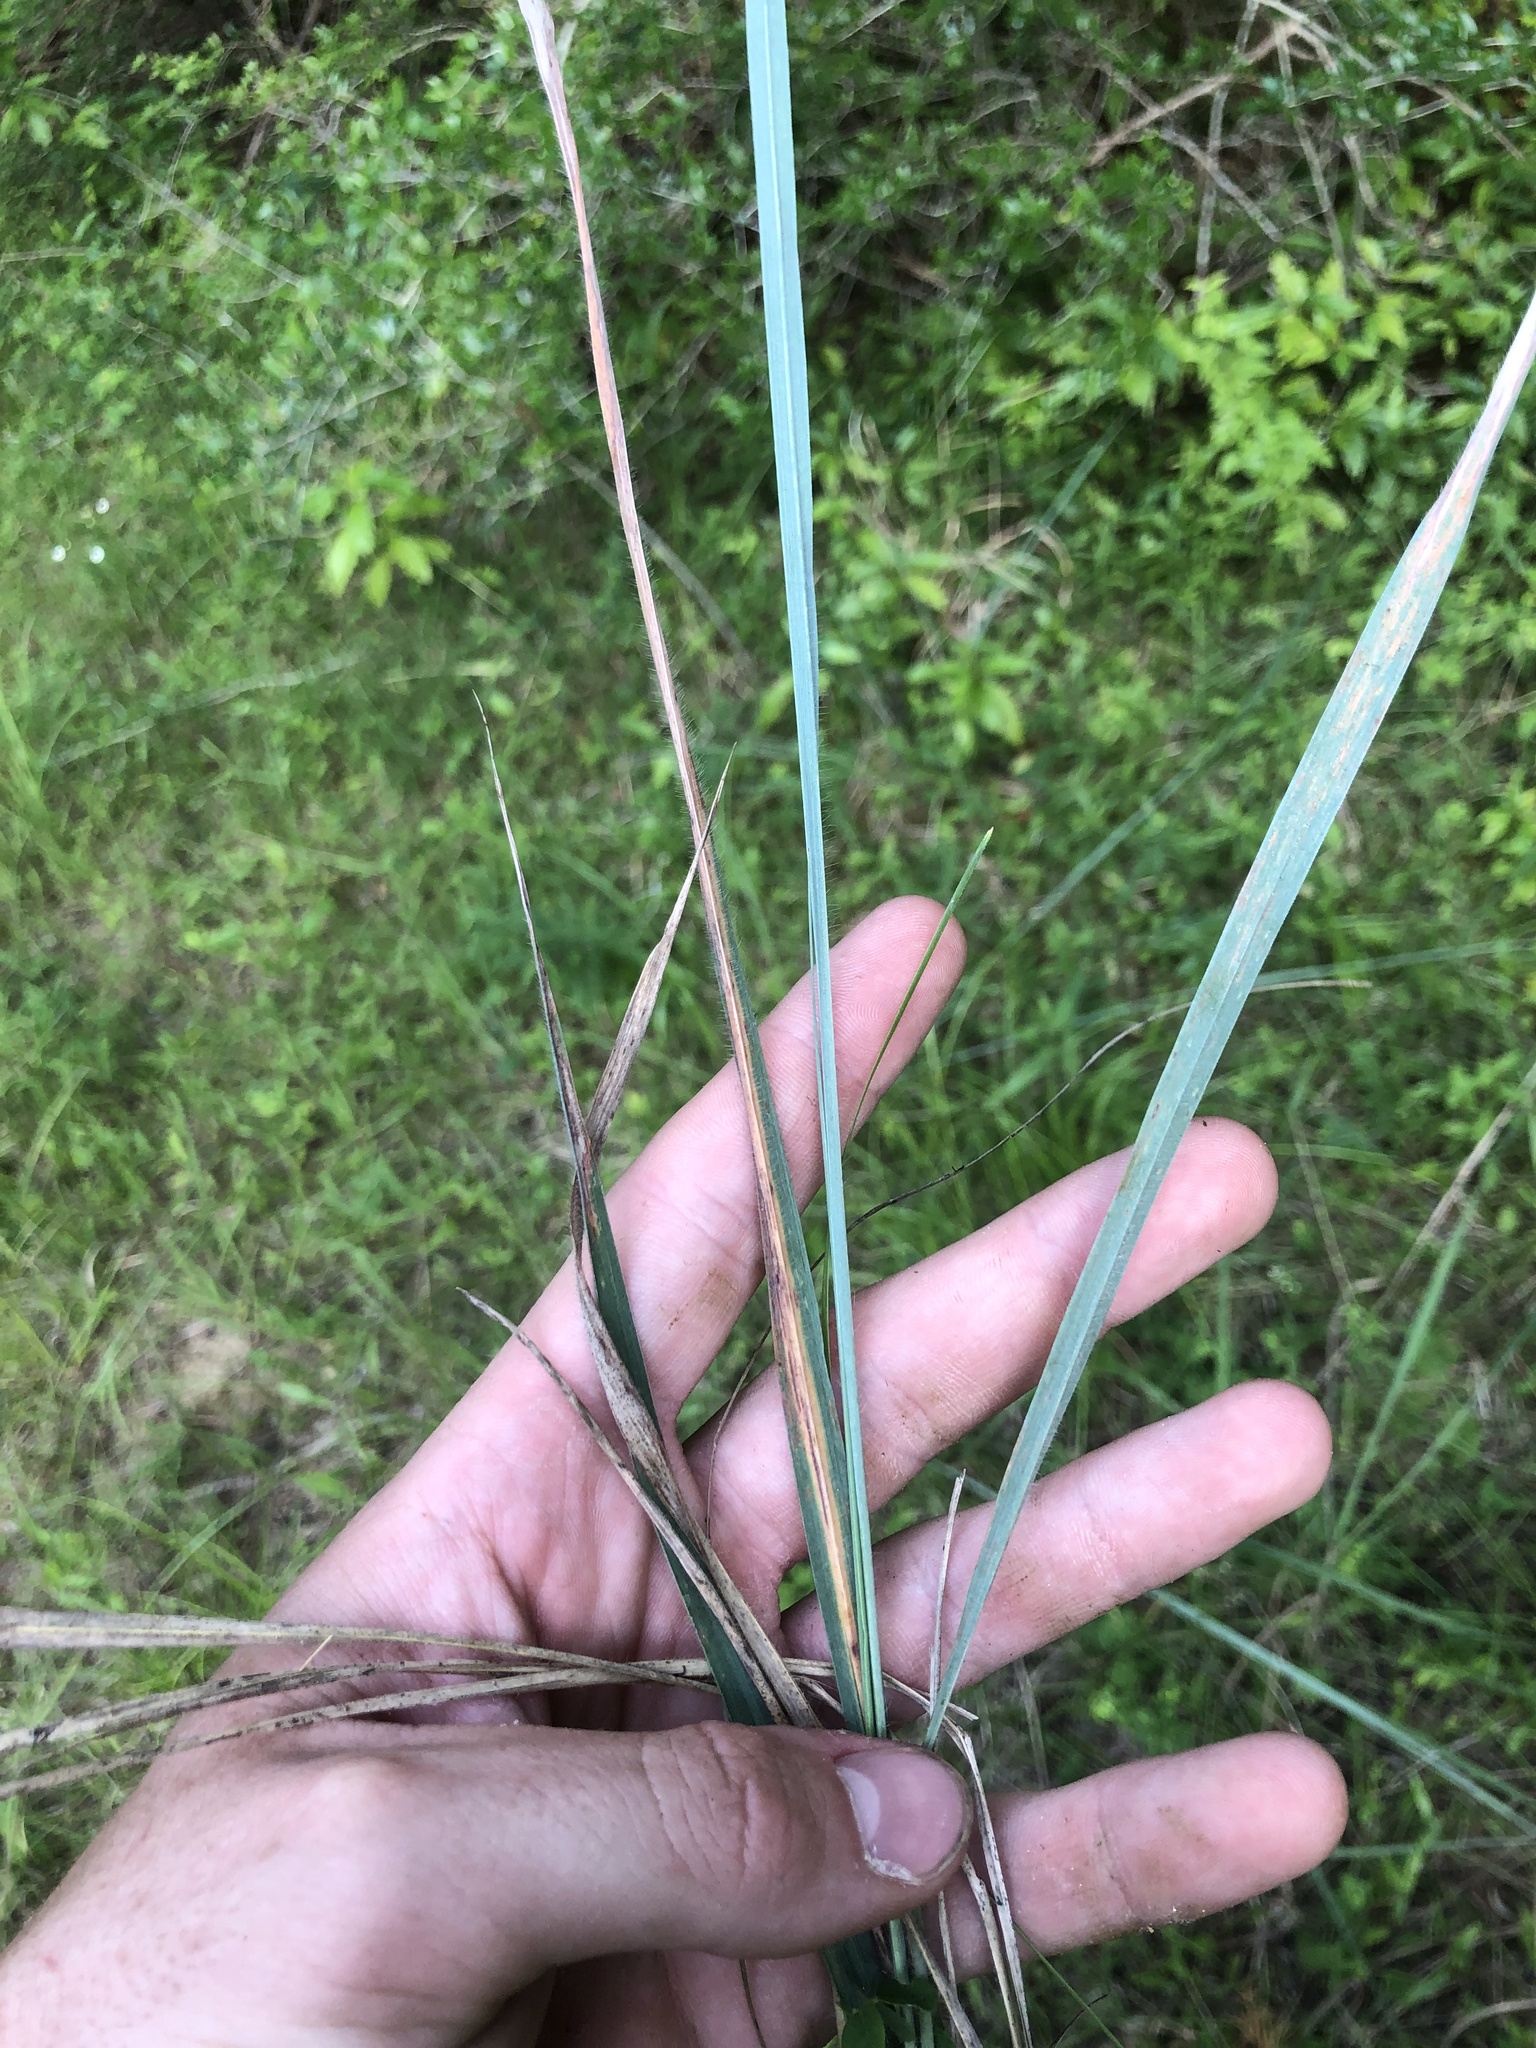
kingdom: Plantae
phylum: Tracheophyta
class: Liliopsida
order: Poales
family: Poaceae
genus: Sorghastrum
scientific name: Sorghastrum nutans
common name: Indian grass
